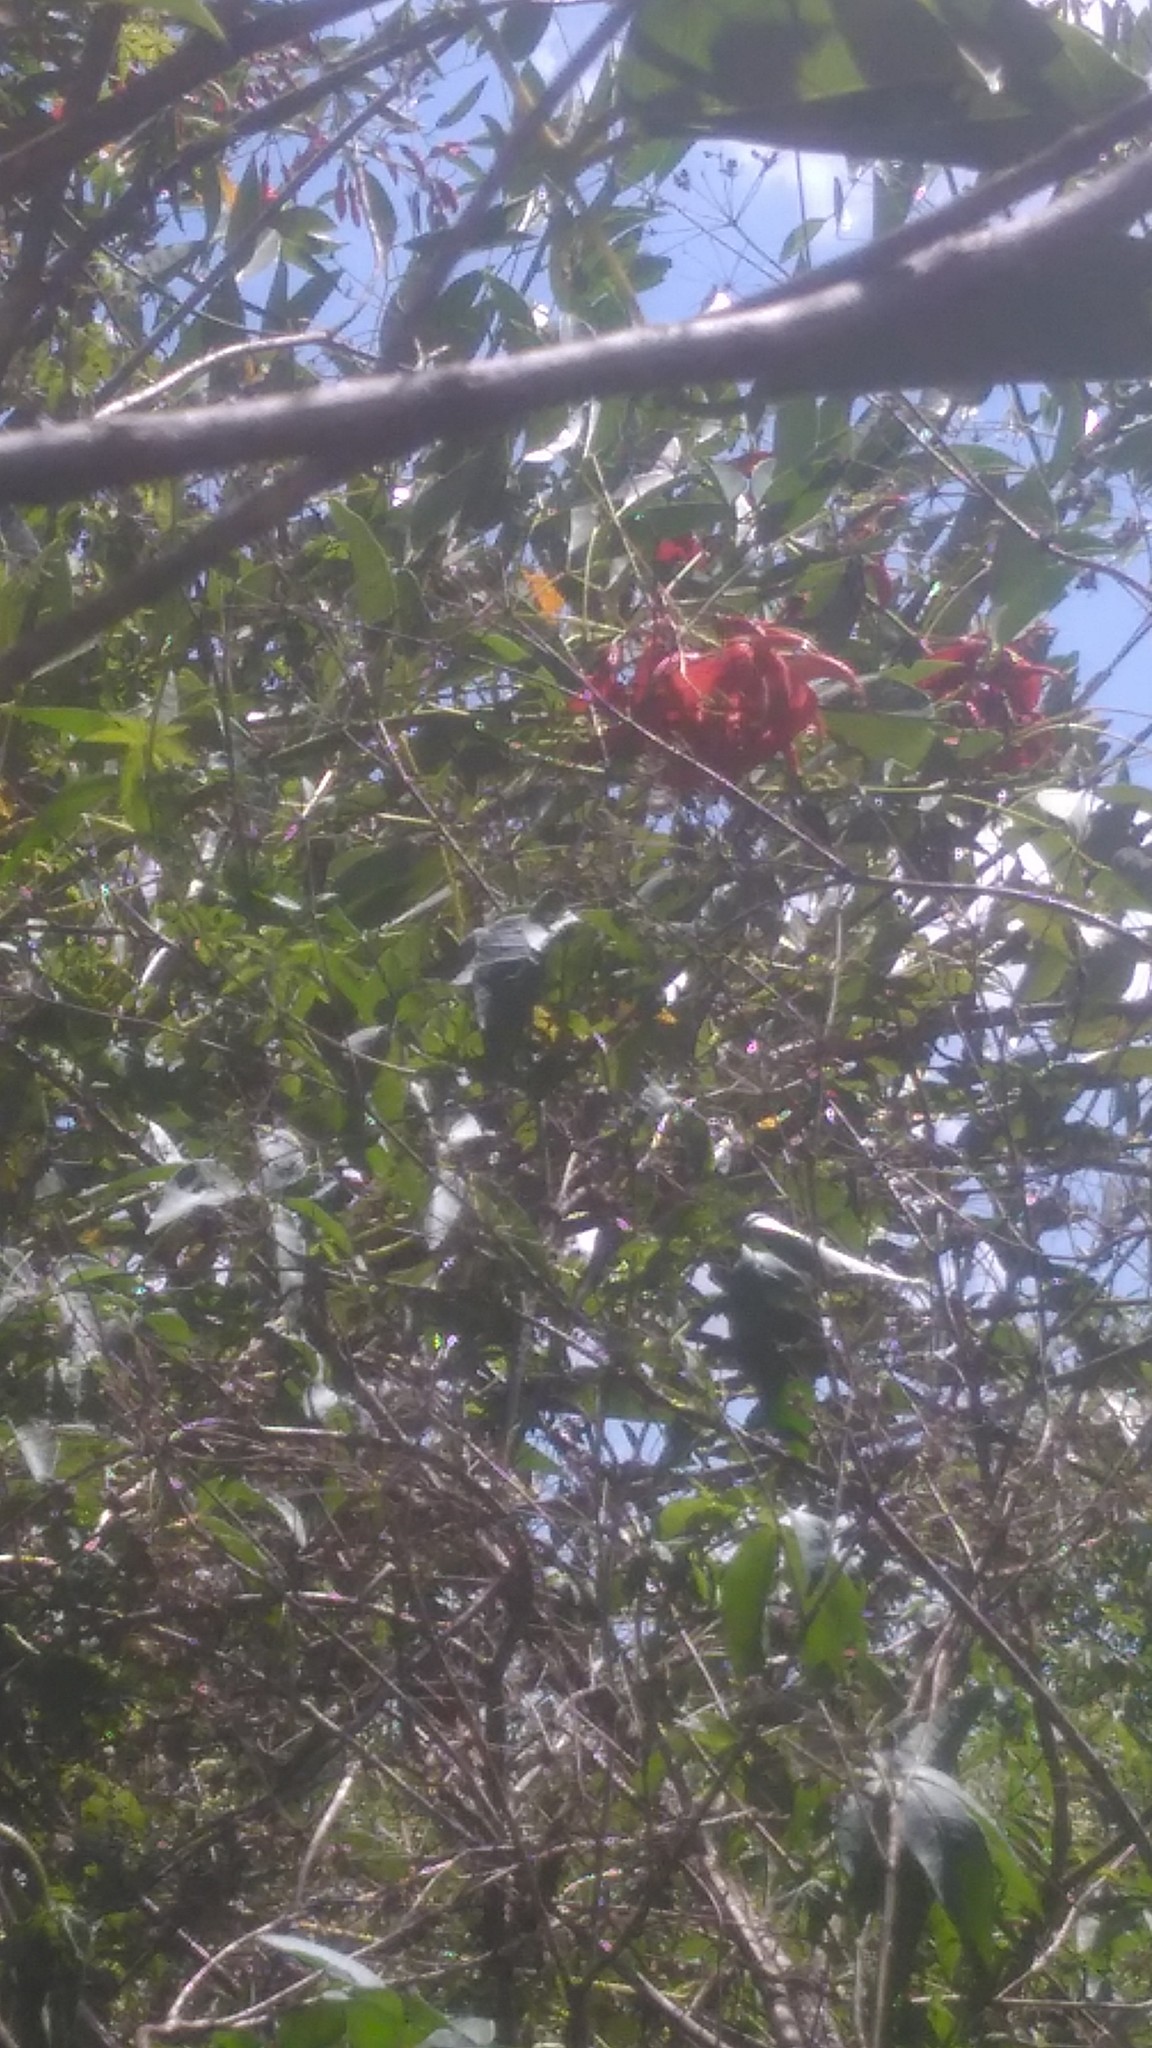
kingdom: Plantae
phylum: Tracheophyta
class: Magnoliopsida
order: Fabales
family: Fabaceae
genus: Erythrina
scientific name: Erythrina crista-galli
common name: Cockspur coral tree
